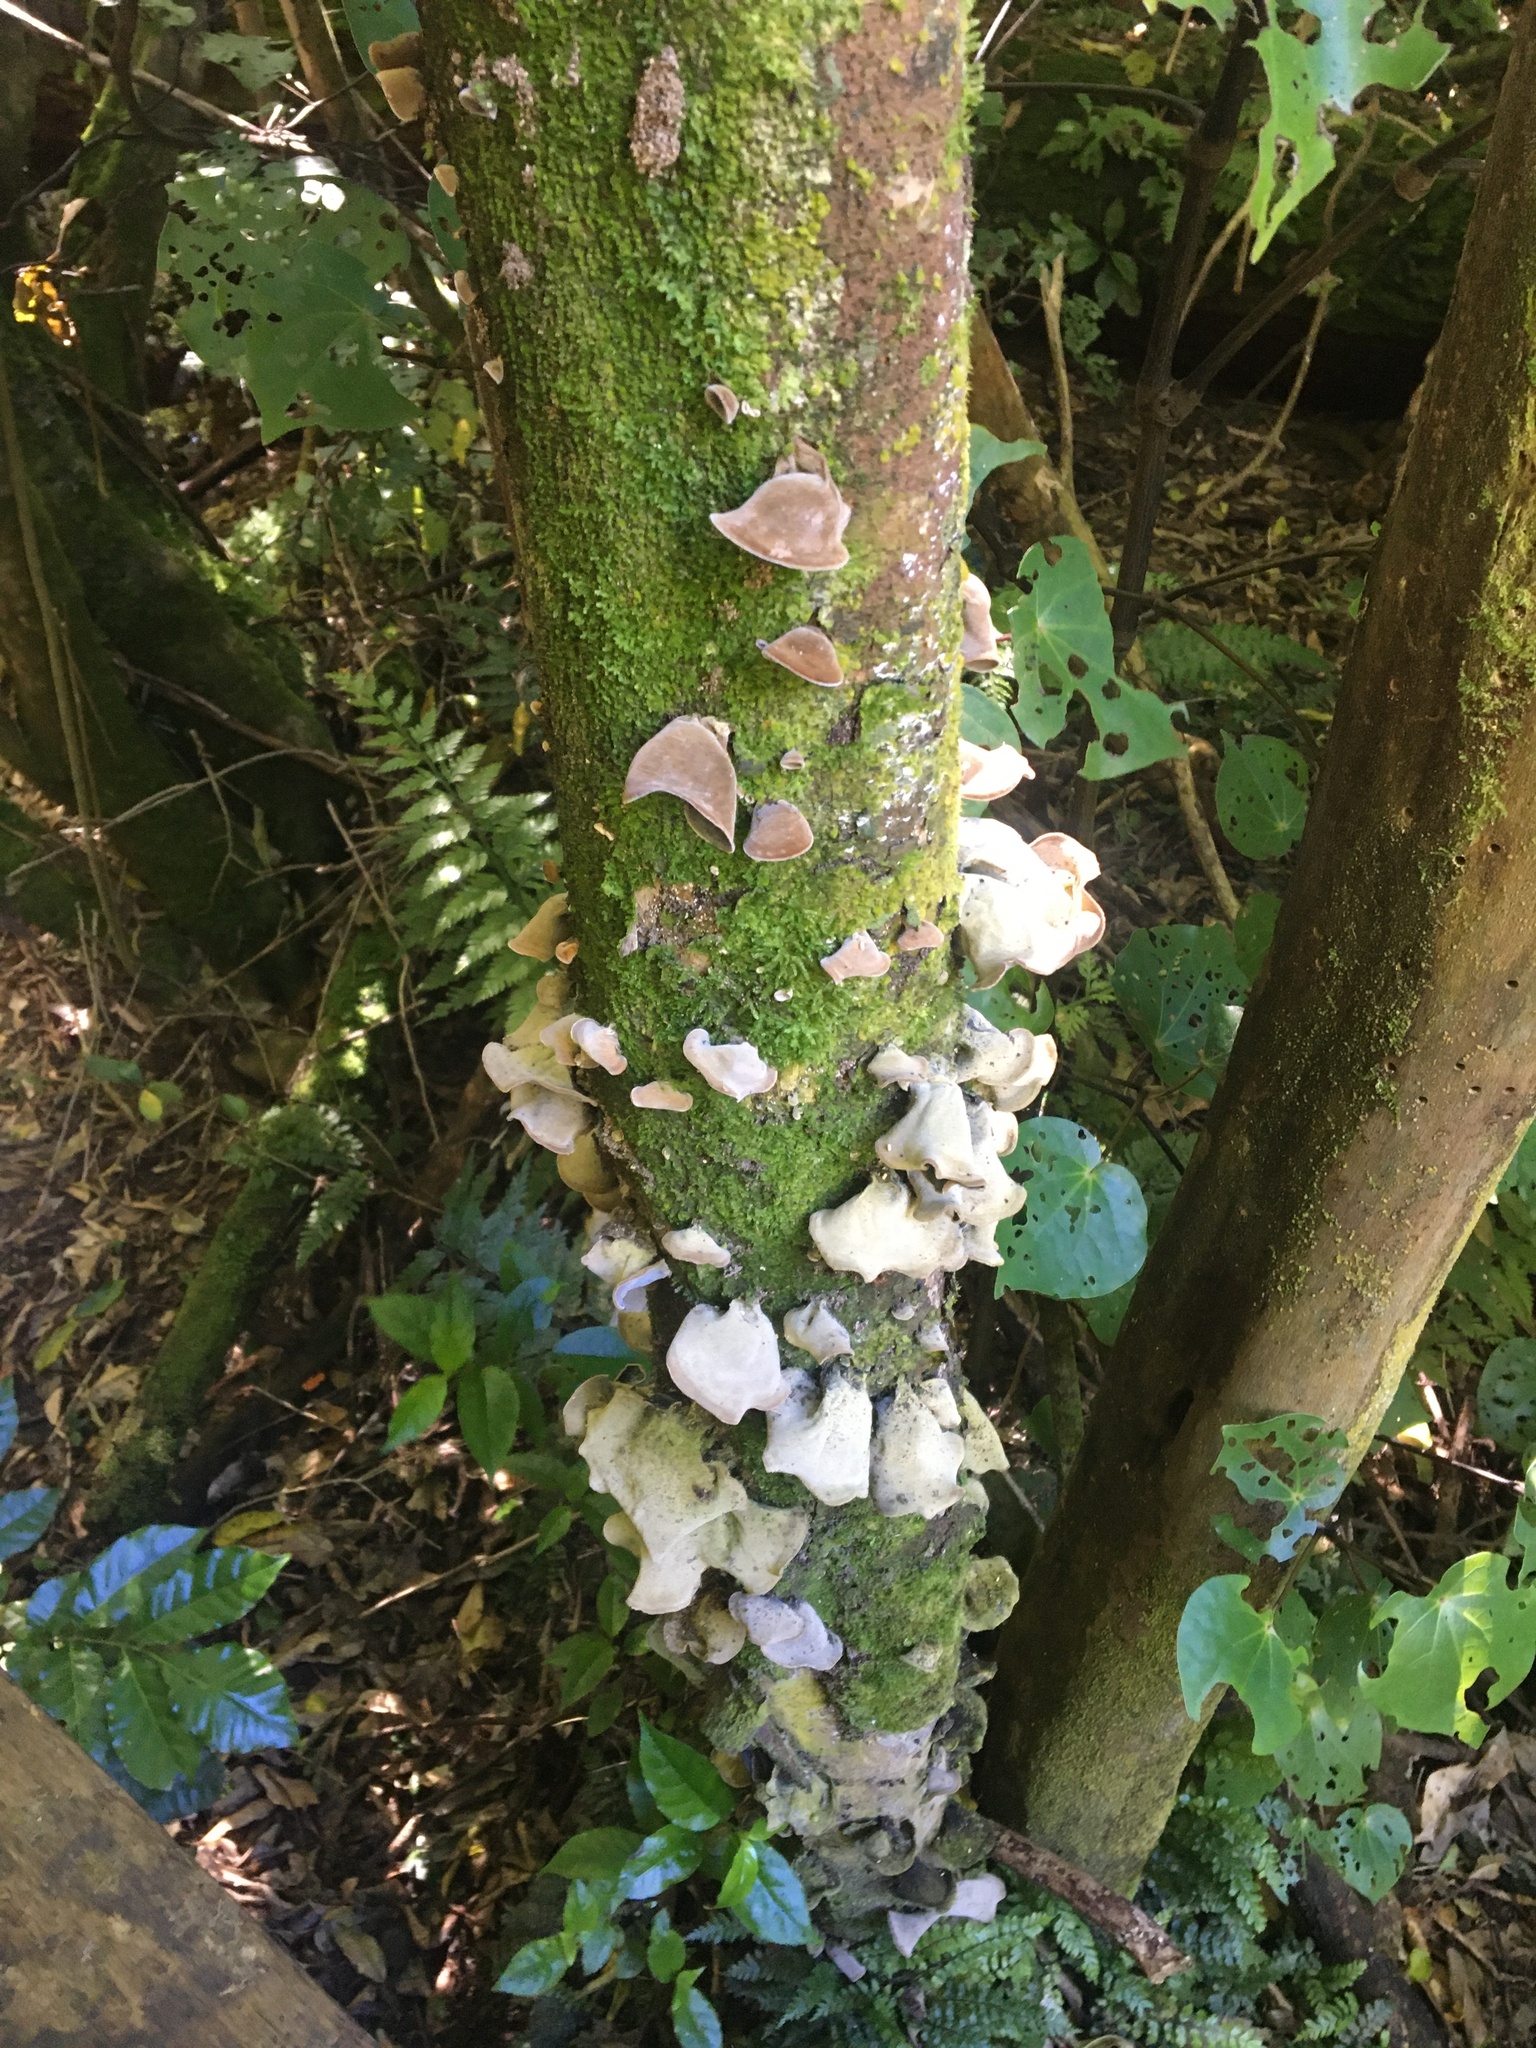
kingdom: Fungi
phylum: Basidiomycota
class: Agaricomycetes
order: Auriculariales
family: Auriculariaceae
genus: Auricularia
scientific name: Auricularia cornea
